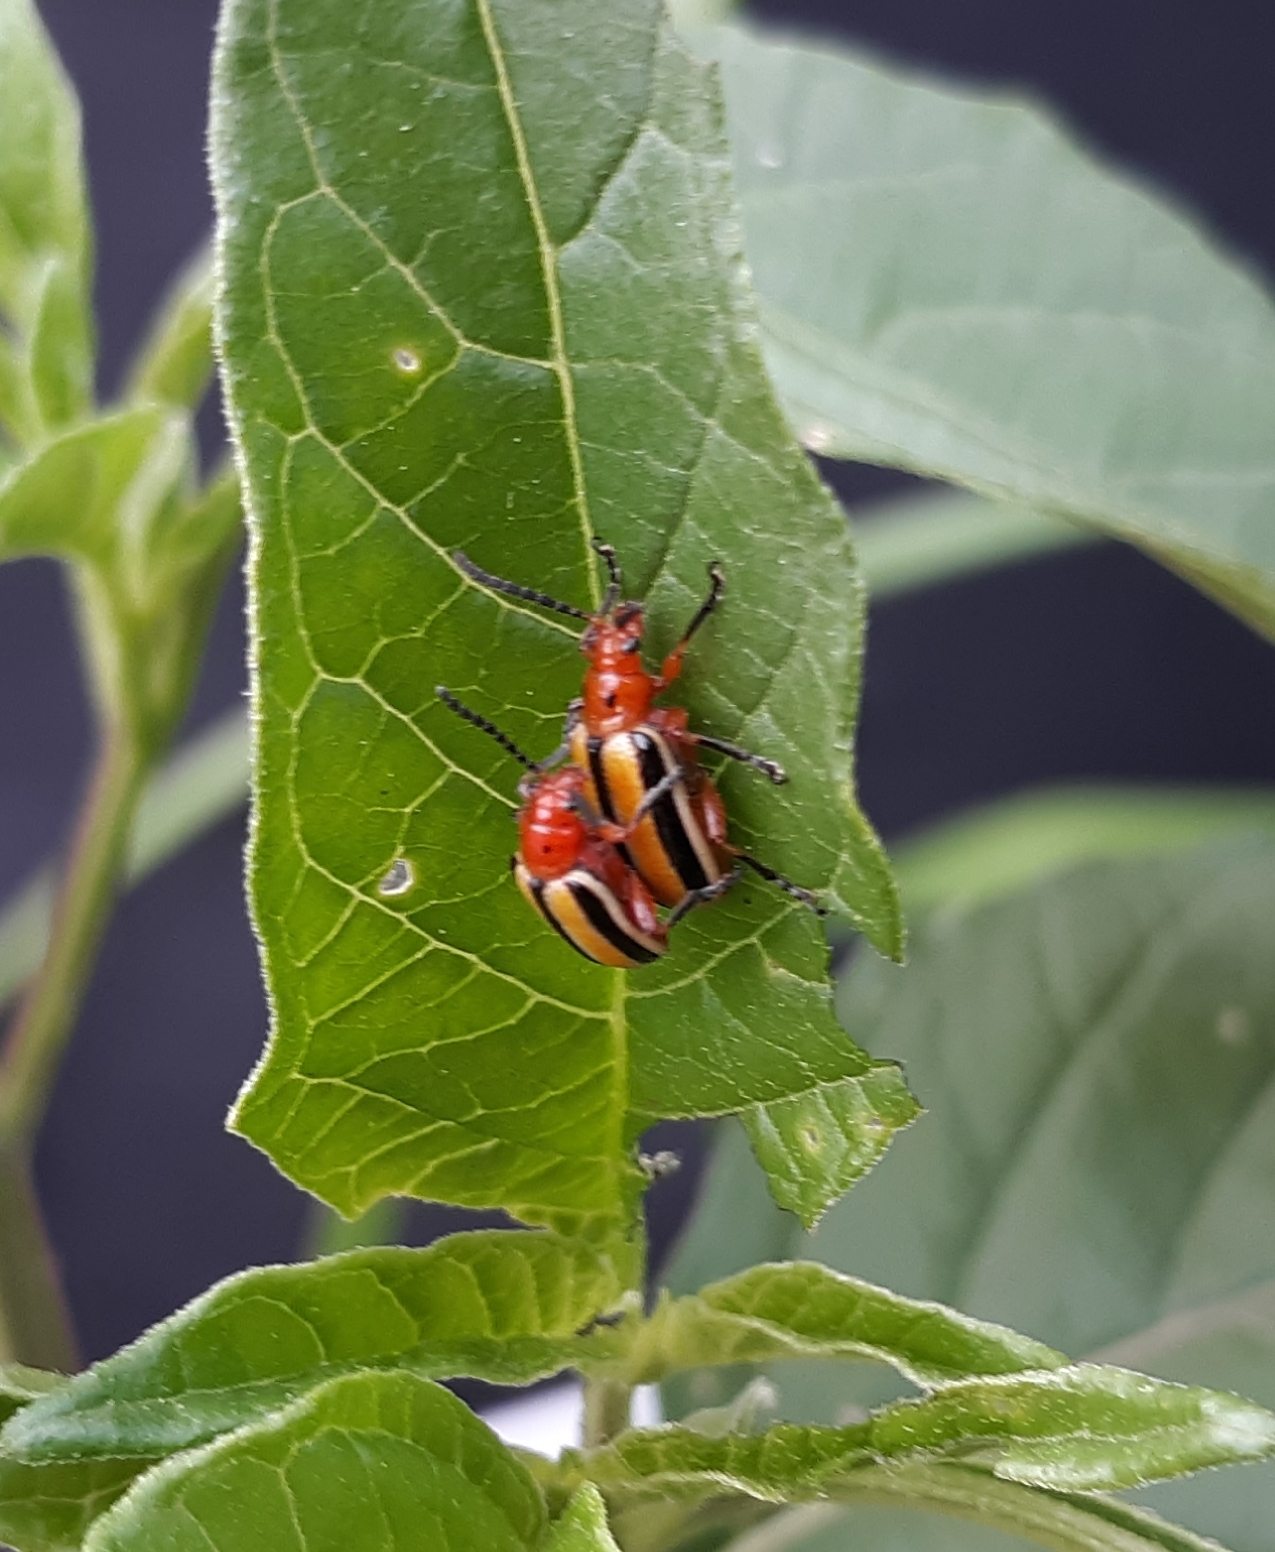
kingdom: Animalia
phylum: Arthropoda
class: Insecta
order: Coleoptera
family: Chrysomelidae
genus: Lema
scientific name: Lema daturaphila
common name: Leaf beetle
